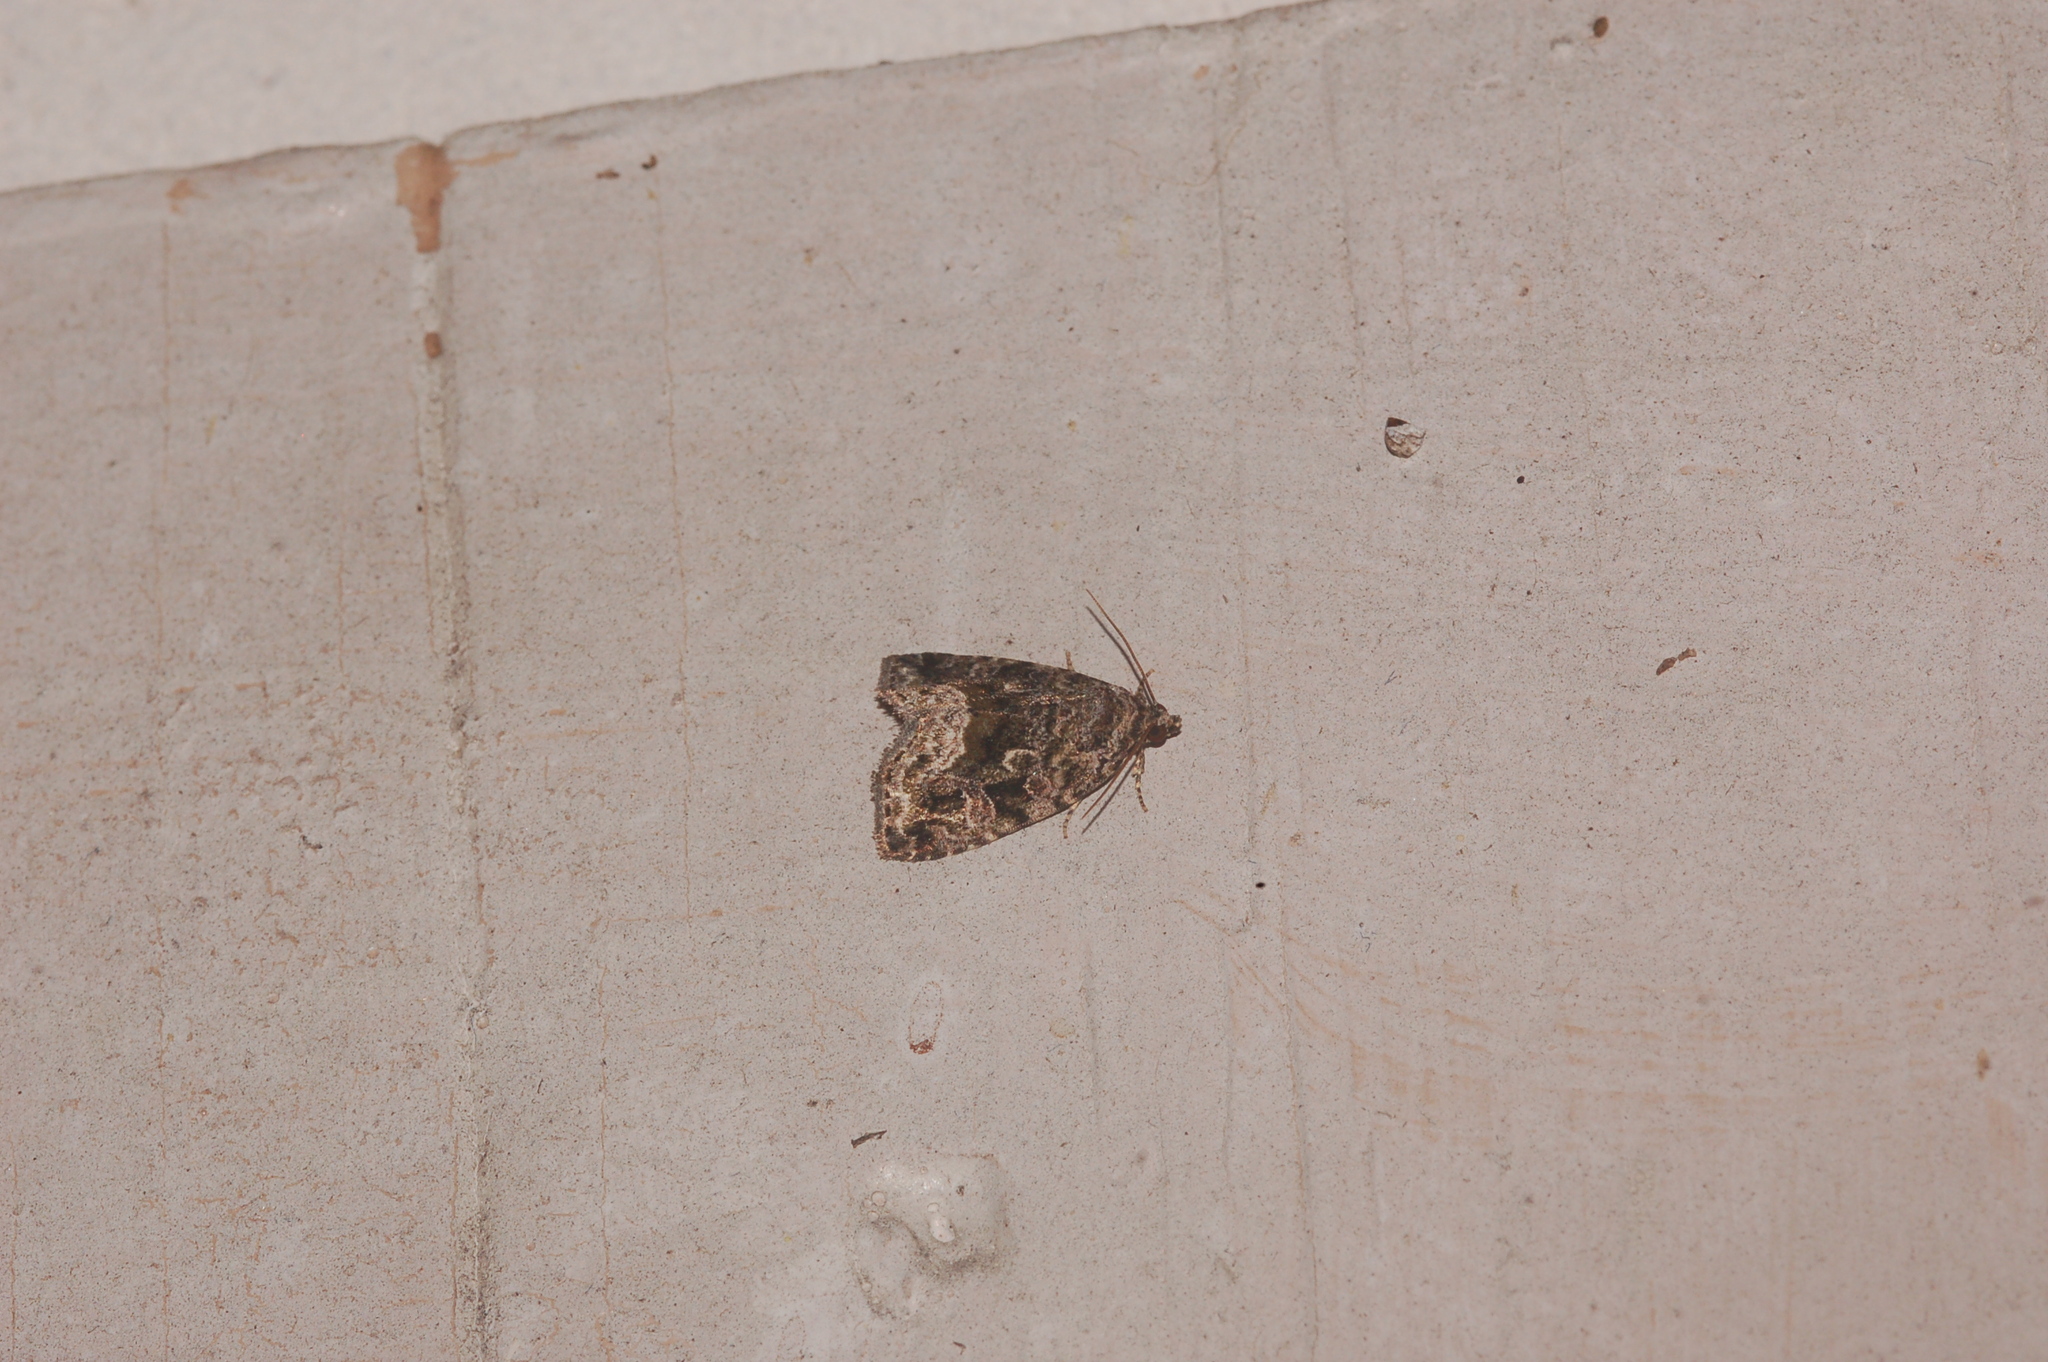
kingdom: Animalia
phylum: Arthropoda
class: Insecta
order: Lepidoptera
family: Noctuidae
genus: Protodeltote
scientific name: Protodeltote muscosula
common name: Large mossy glyph
